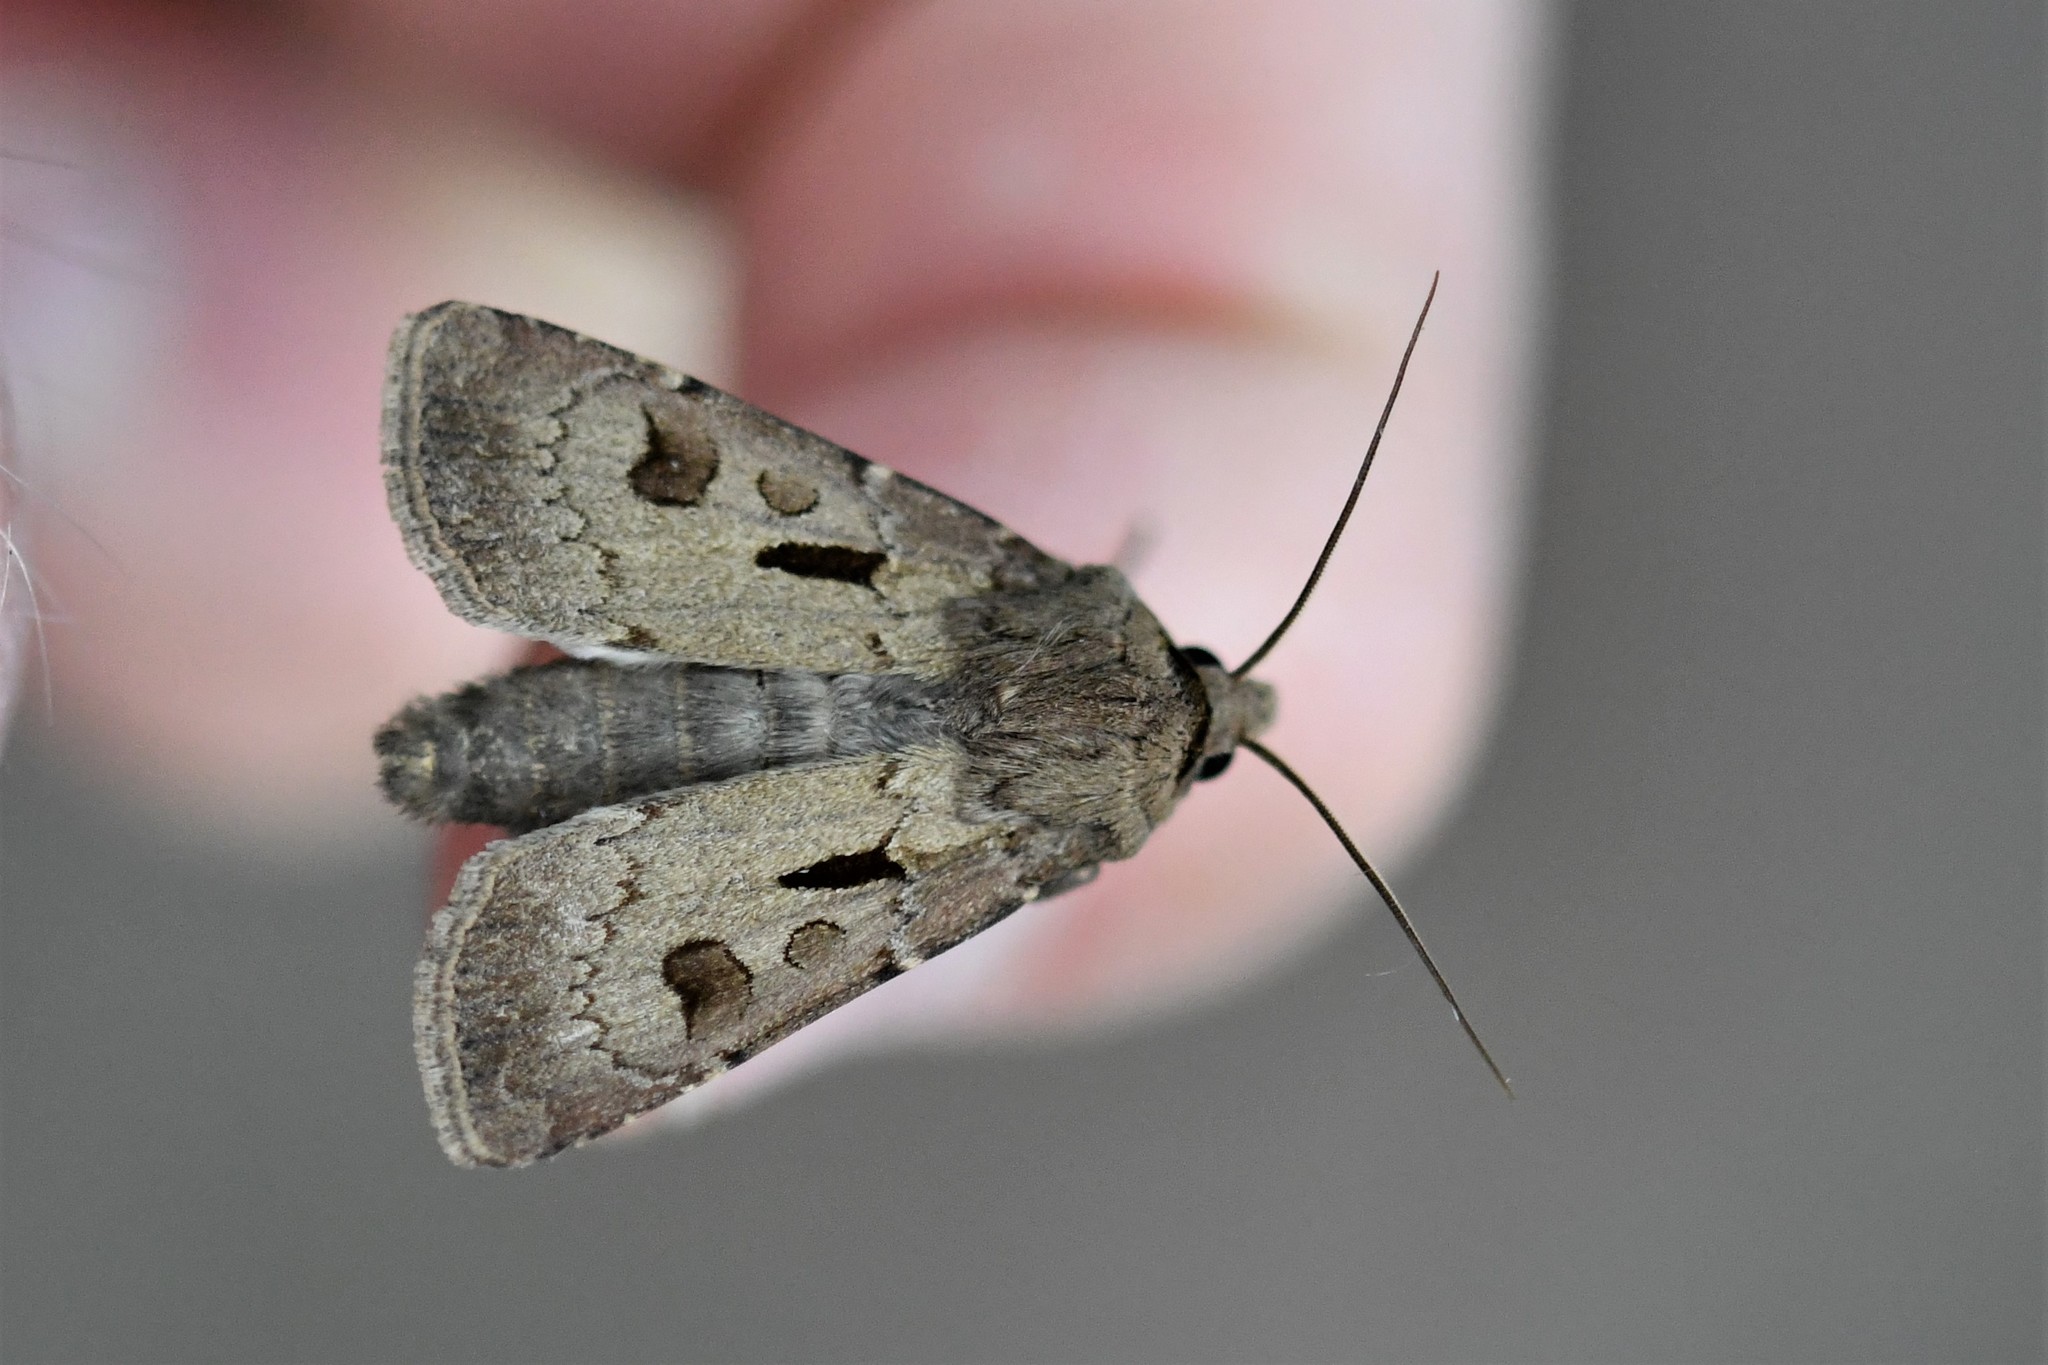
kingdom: Animalia
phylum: Arthropoda
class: Insecta
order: Lepidoptera
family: Noctuidae
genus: Agrotis
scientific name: Agrotis exclamationis
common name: Heart and dart
